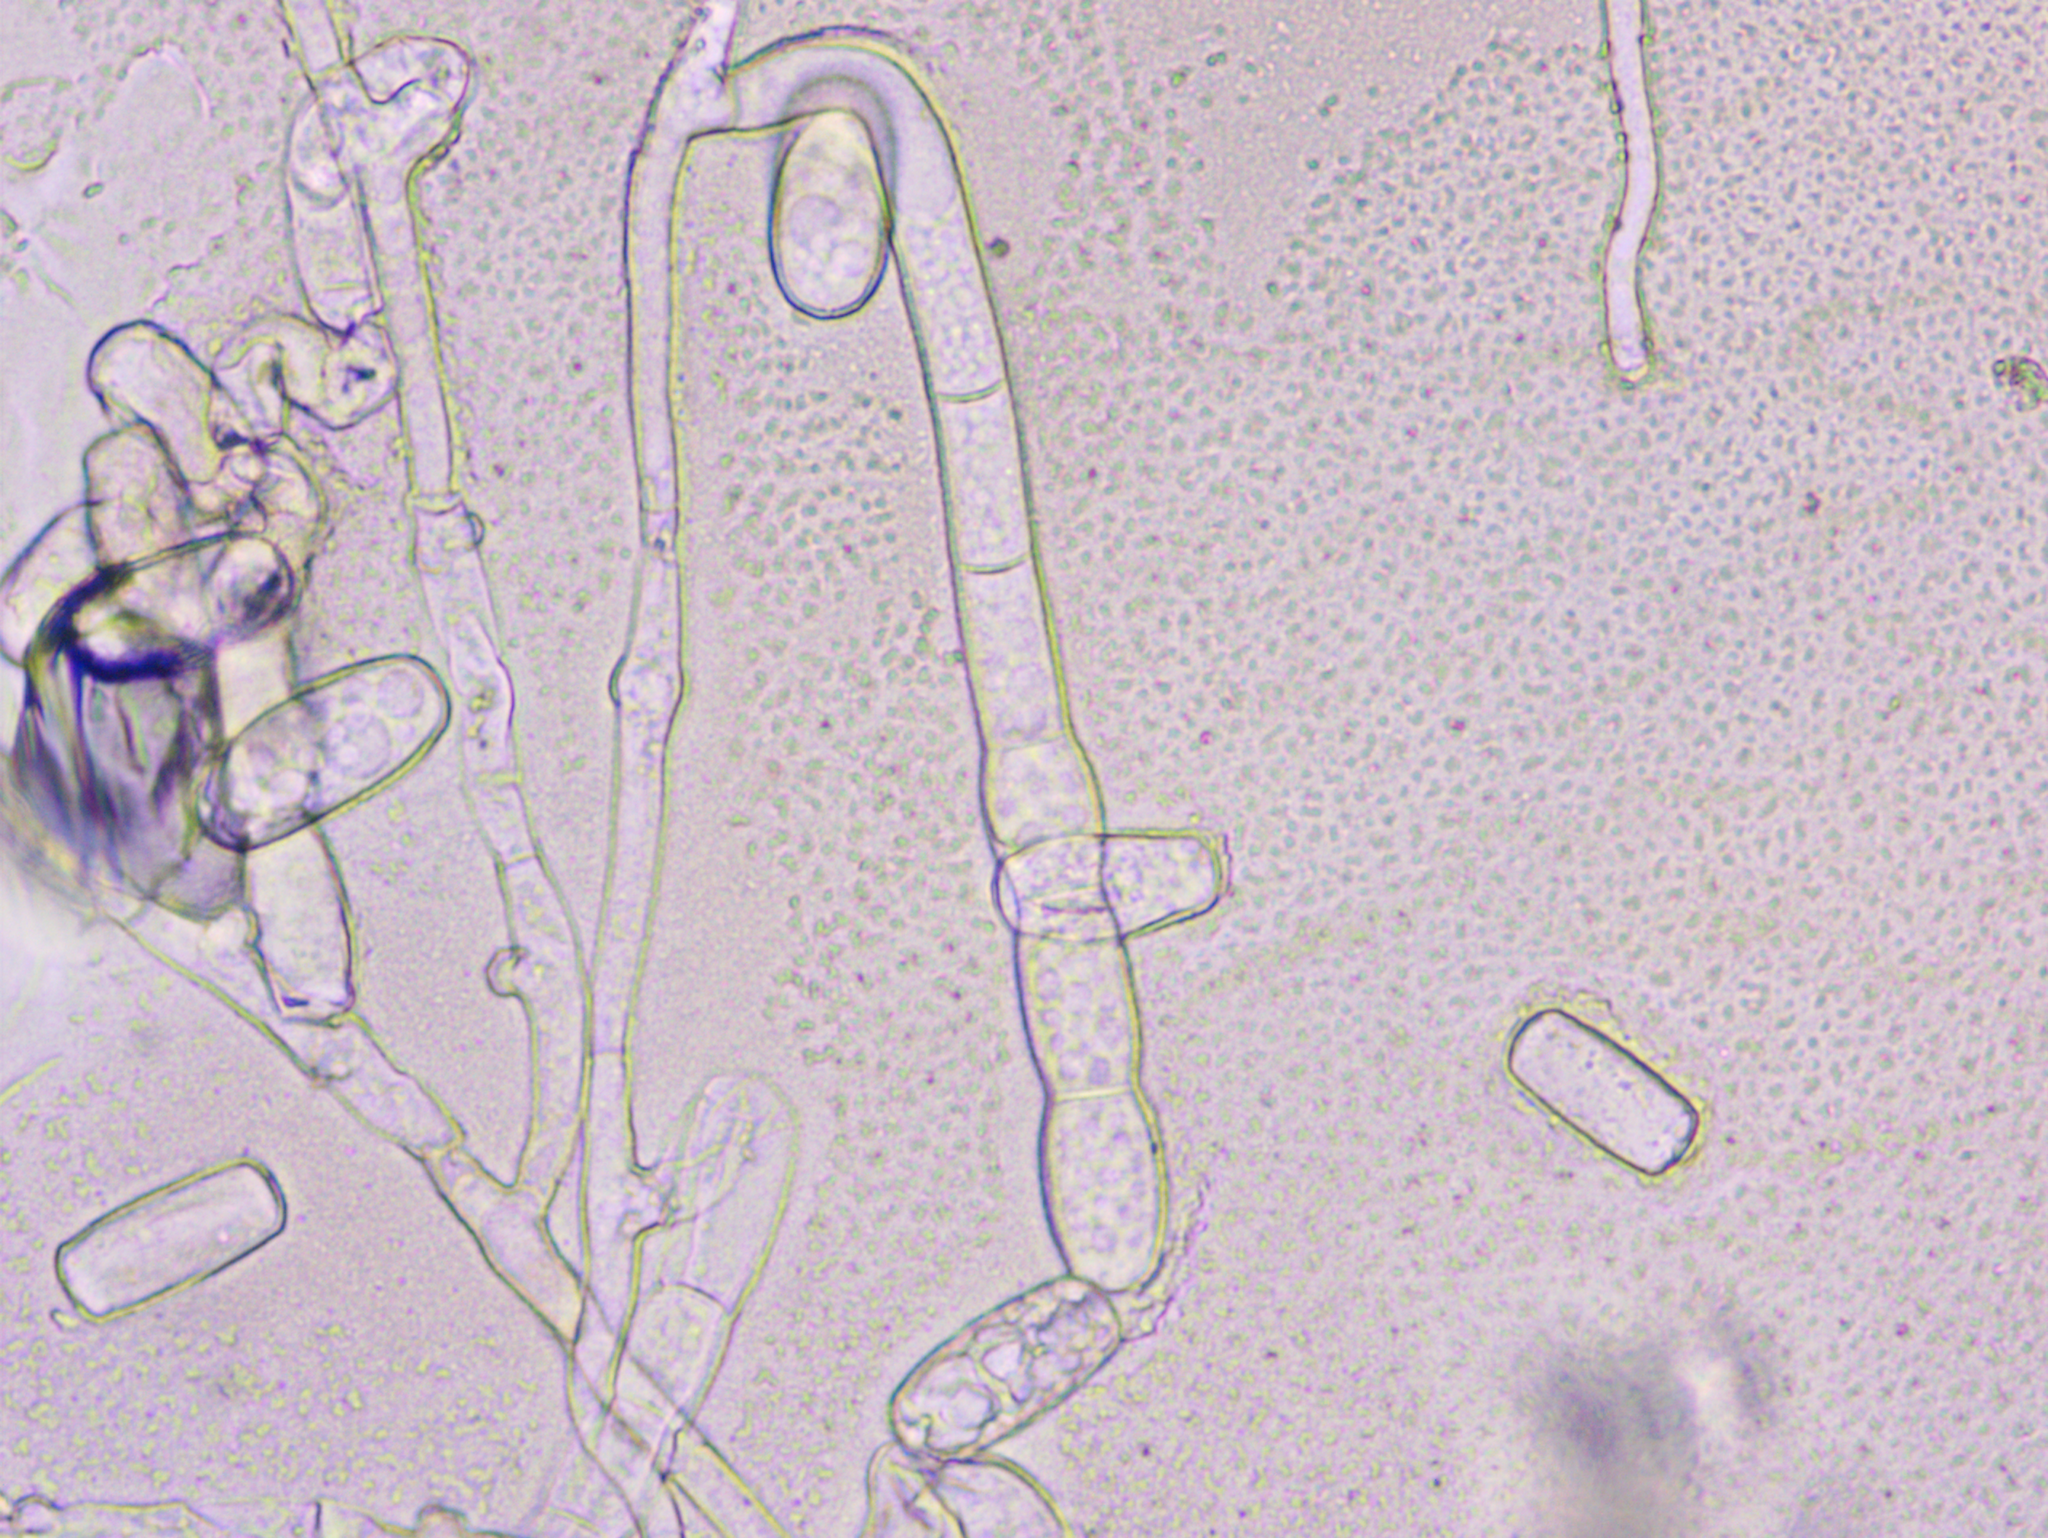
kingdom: Fungi
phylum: Ascomycota
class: Leotiomycetes
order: Helotiales
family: Erysiphaceae
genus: Golovinomyces
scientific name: Golovinomyces sonchicola
